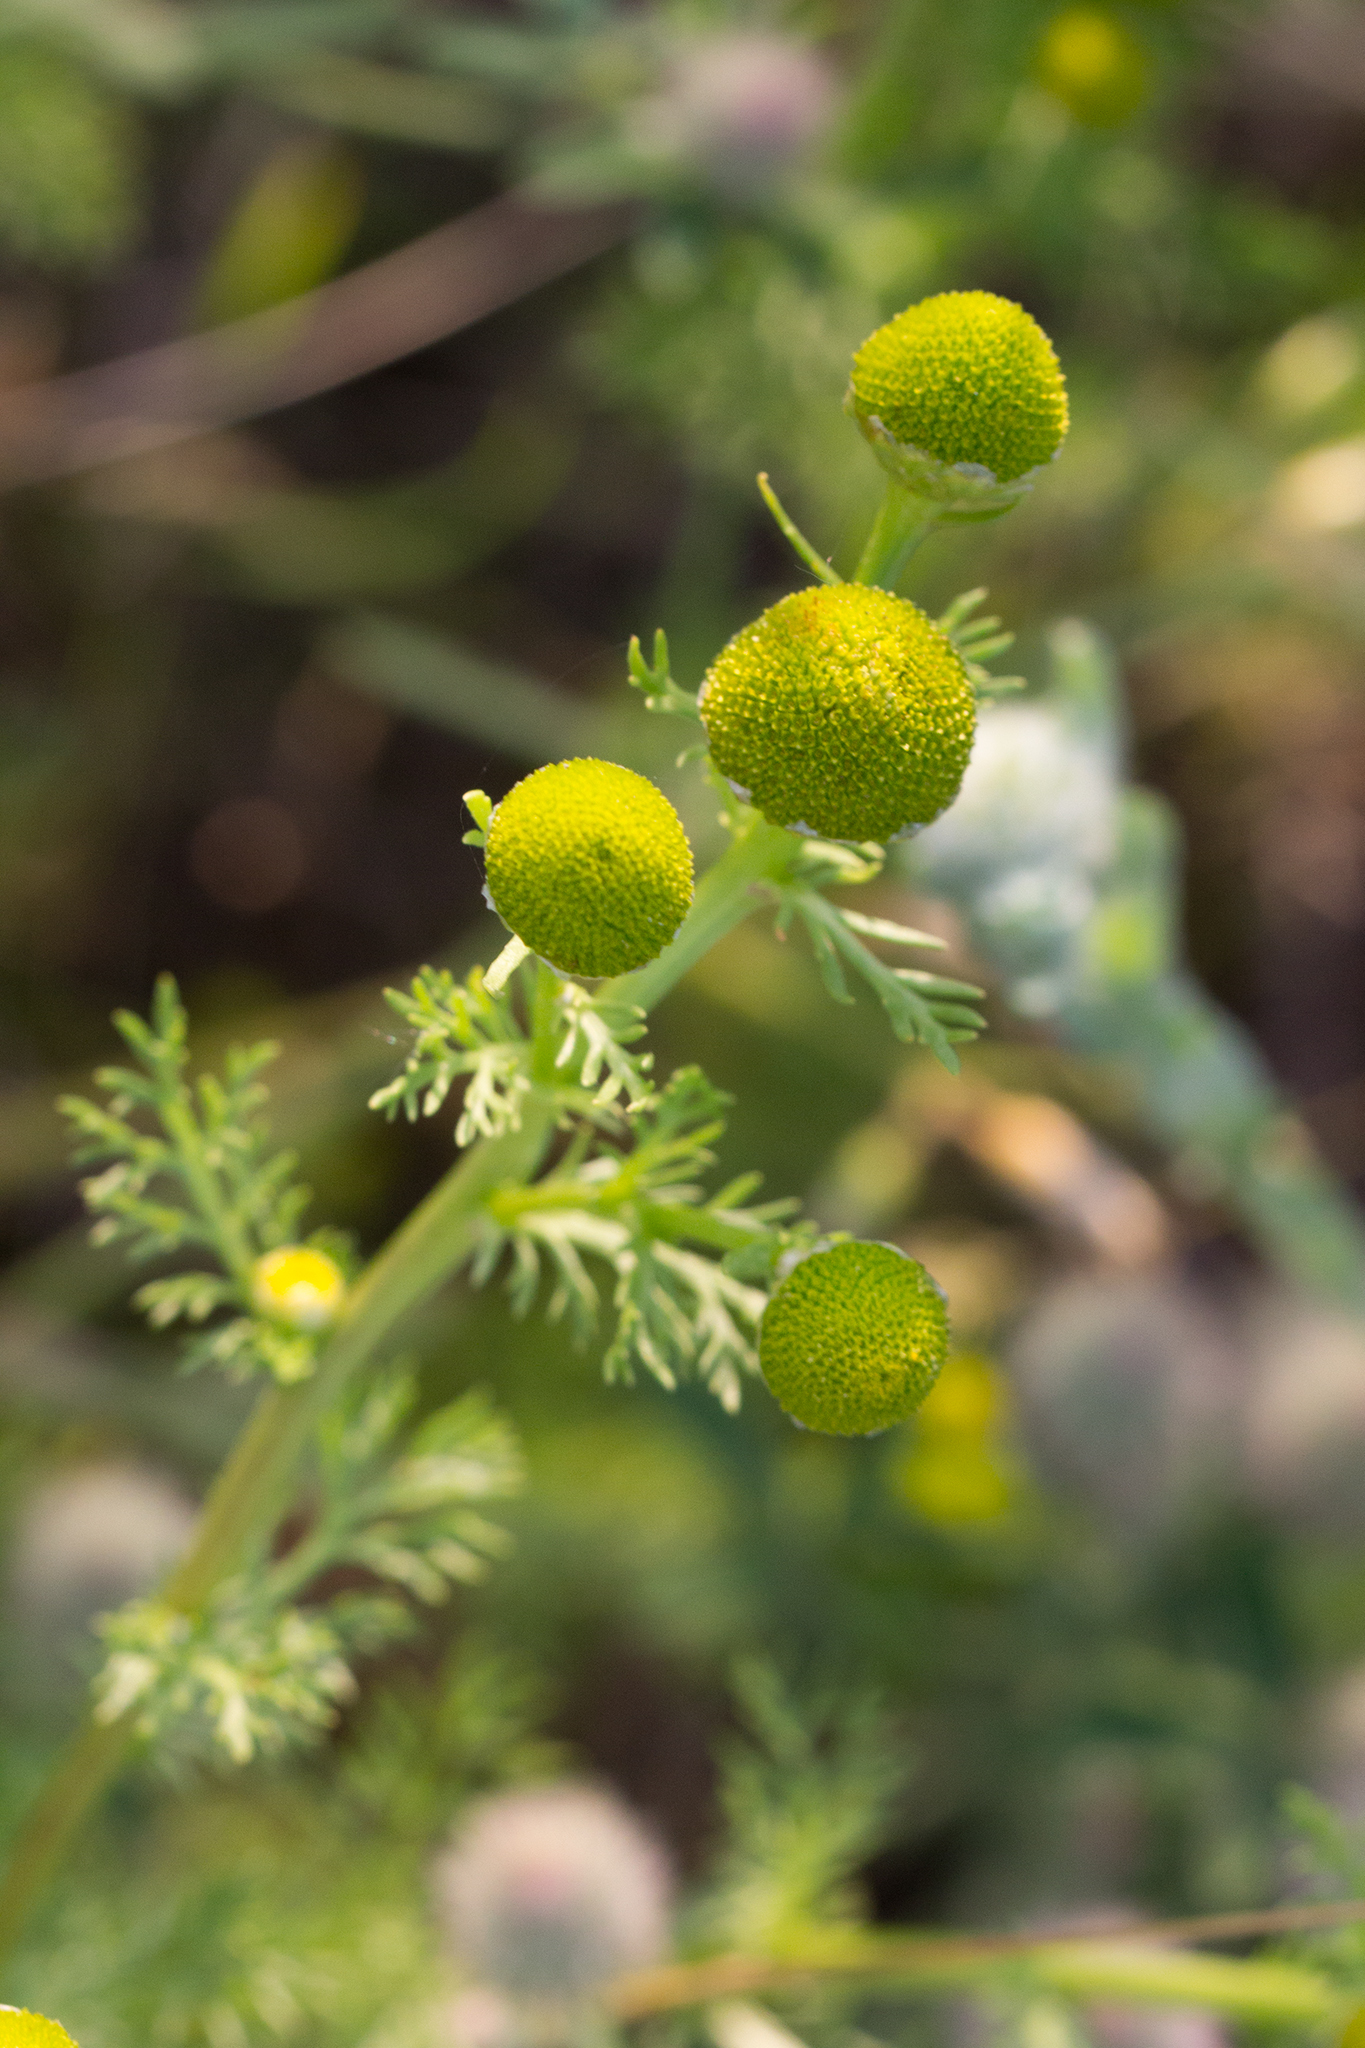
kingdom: Plantae
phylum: Tracheophyta
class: Magnoliopsida
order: Asterales
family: Asteraceae
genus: Matricaria
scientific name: Matricaria discoidea
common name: Disc mayweed
